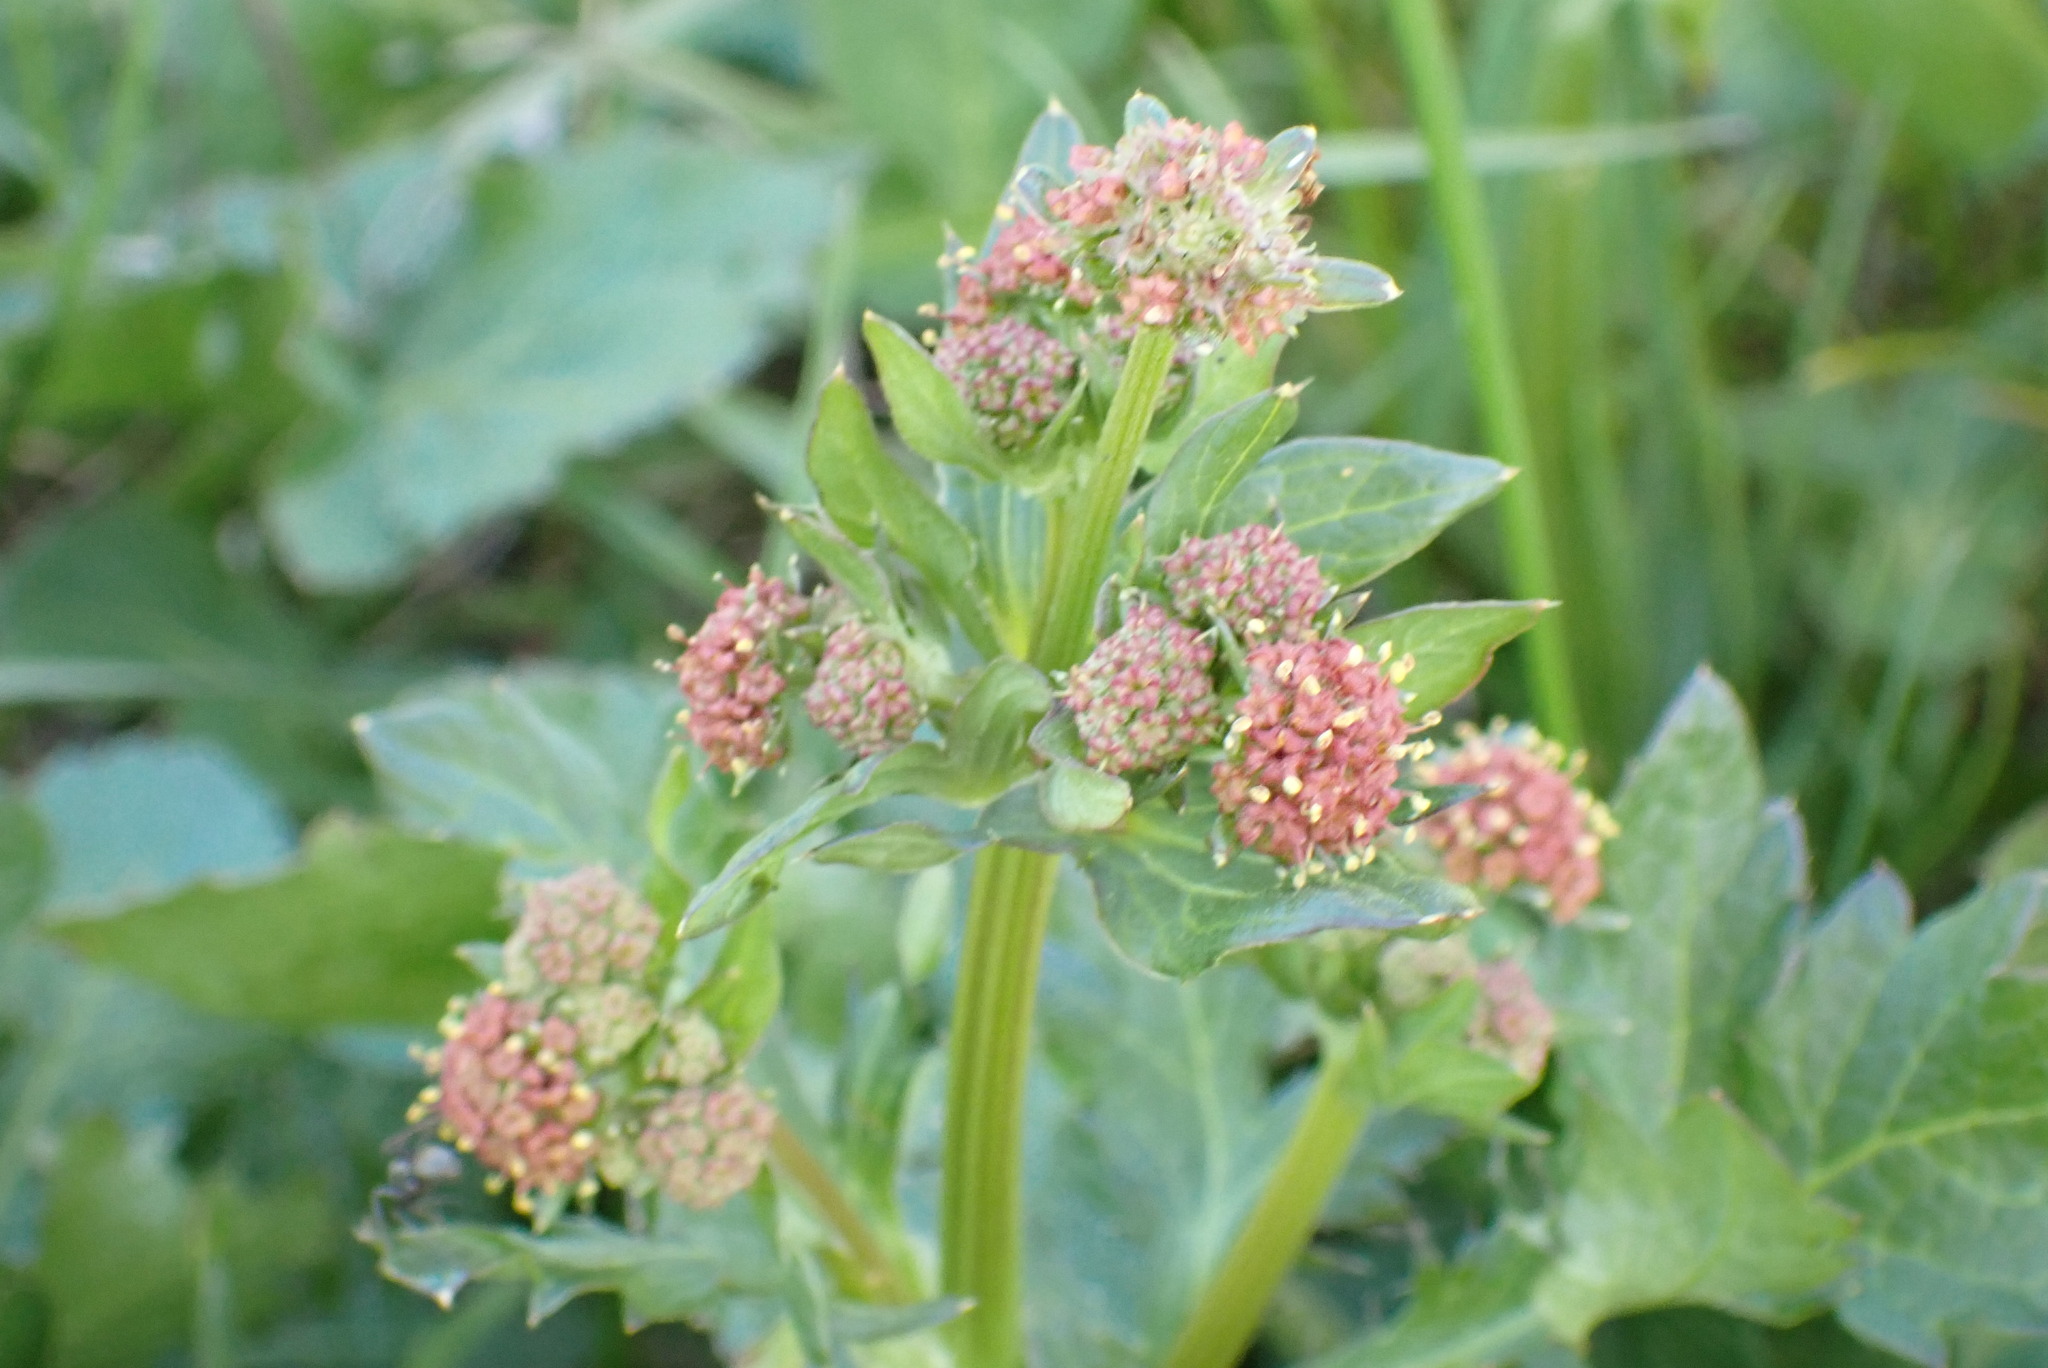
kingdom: Plantae
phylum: Tracheophyta
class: Magnoliopsida
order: Apiales
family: Apiaceae
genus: Sanicula
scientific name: Sanicula crassicaulis
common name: Western snakeroot
